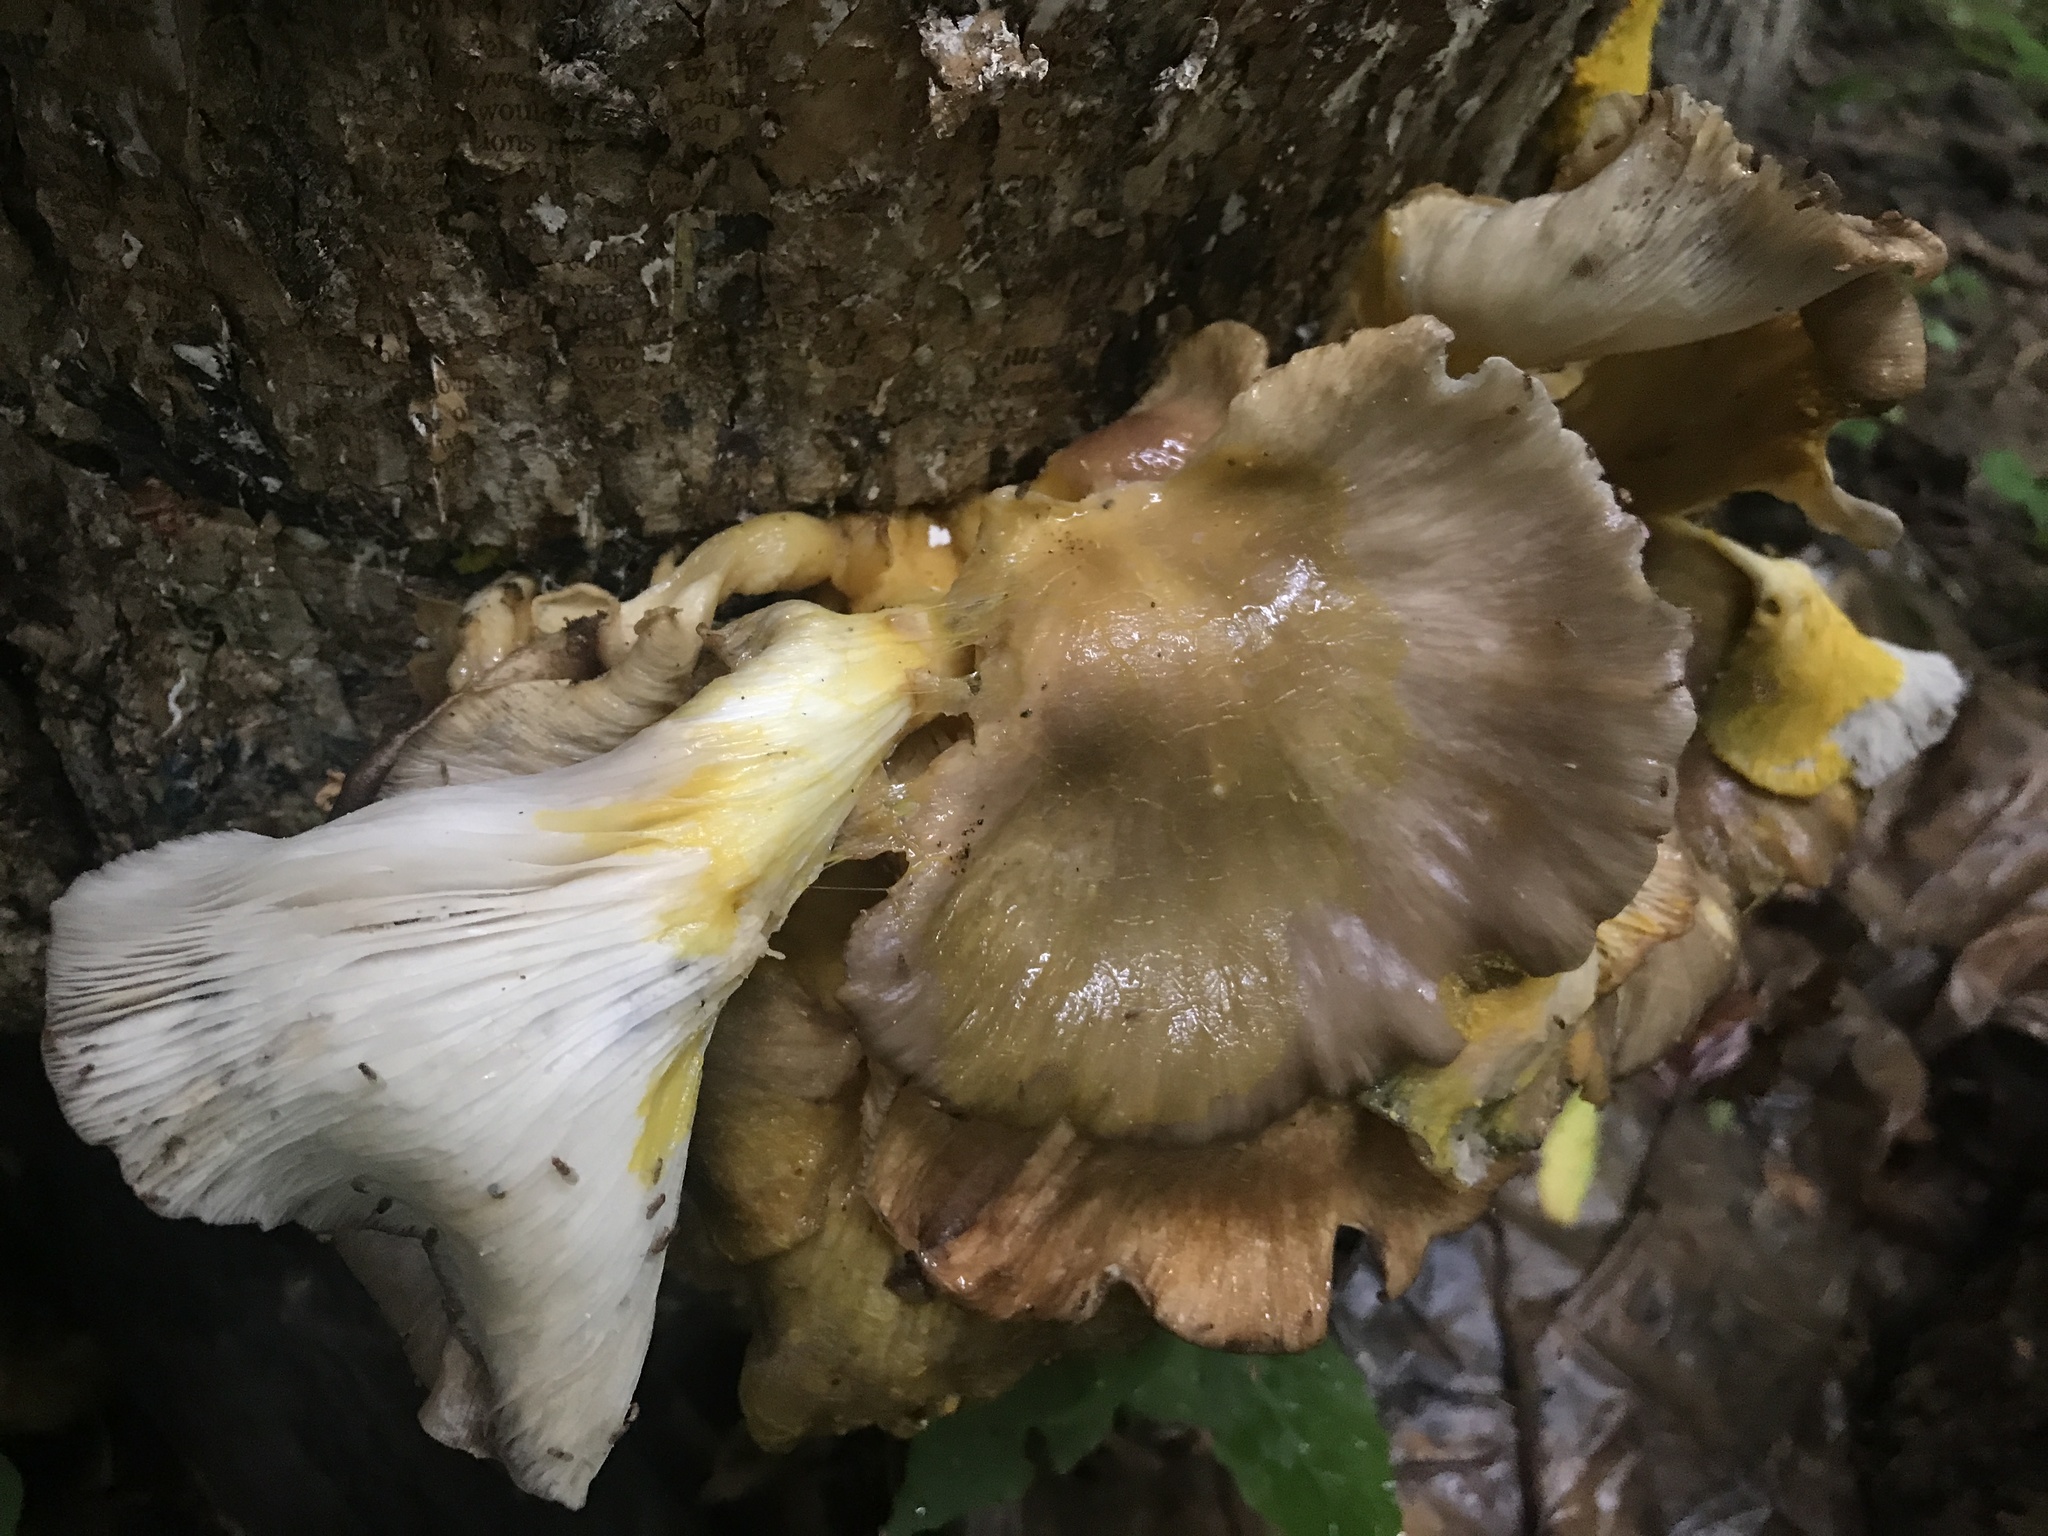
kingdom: Protozoa
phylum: Mycetozoa
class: Myxomycetes
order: Physarales
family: Physaraceae
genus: Physarum
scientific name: Physarum polycephalum
